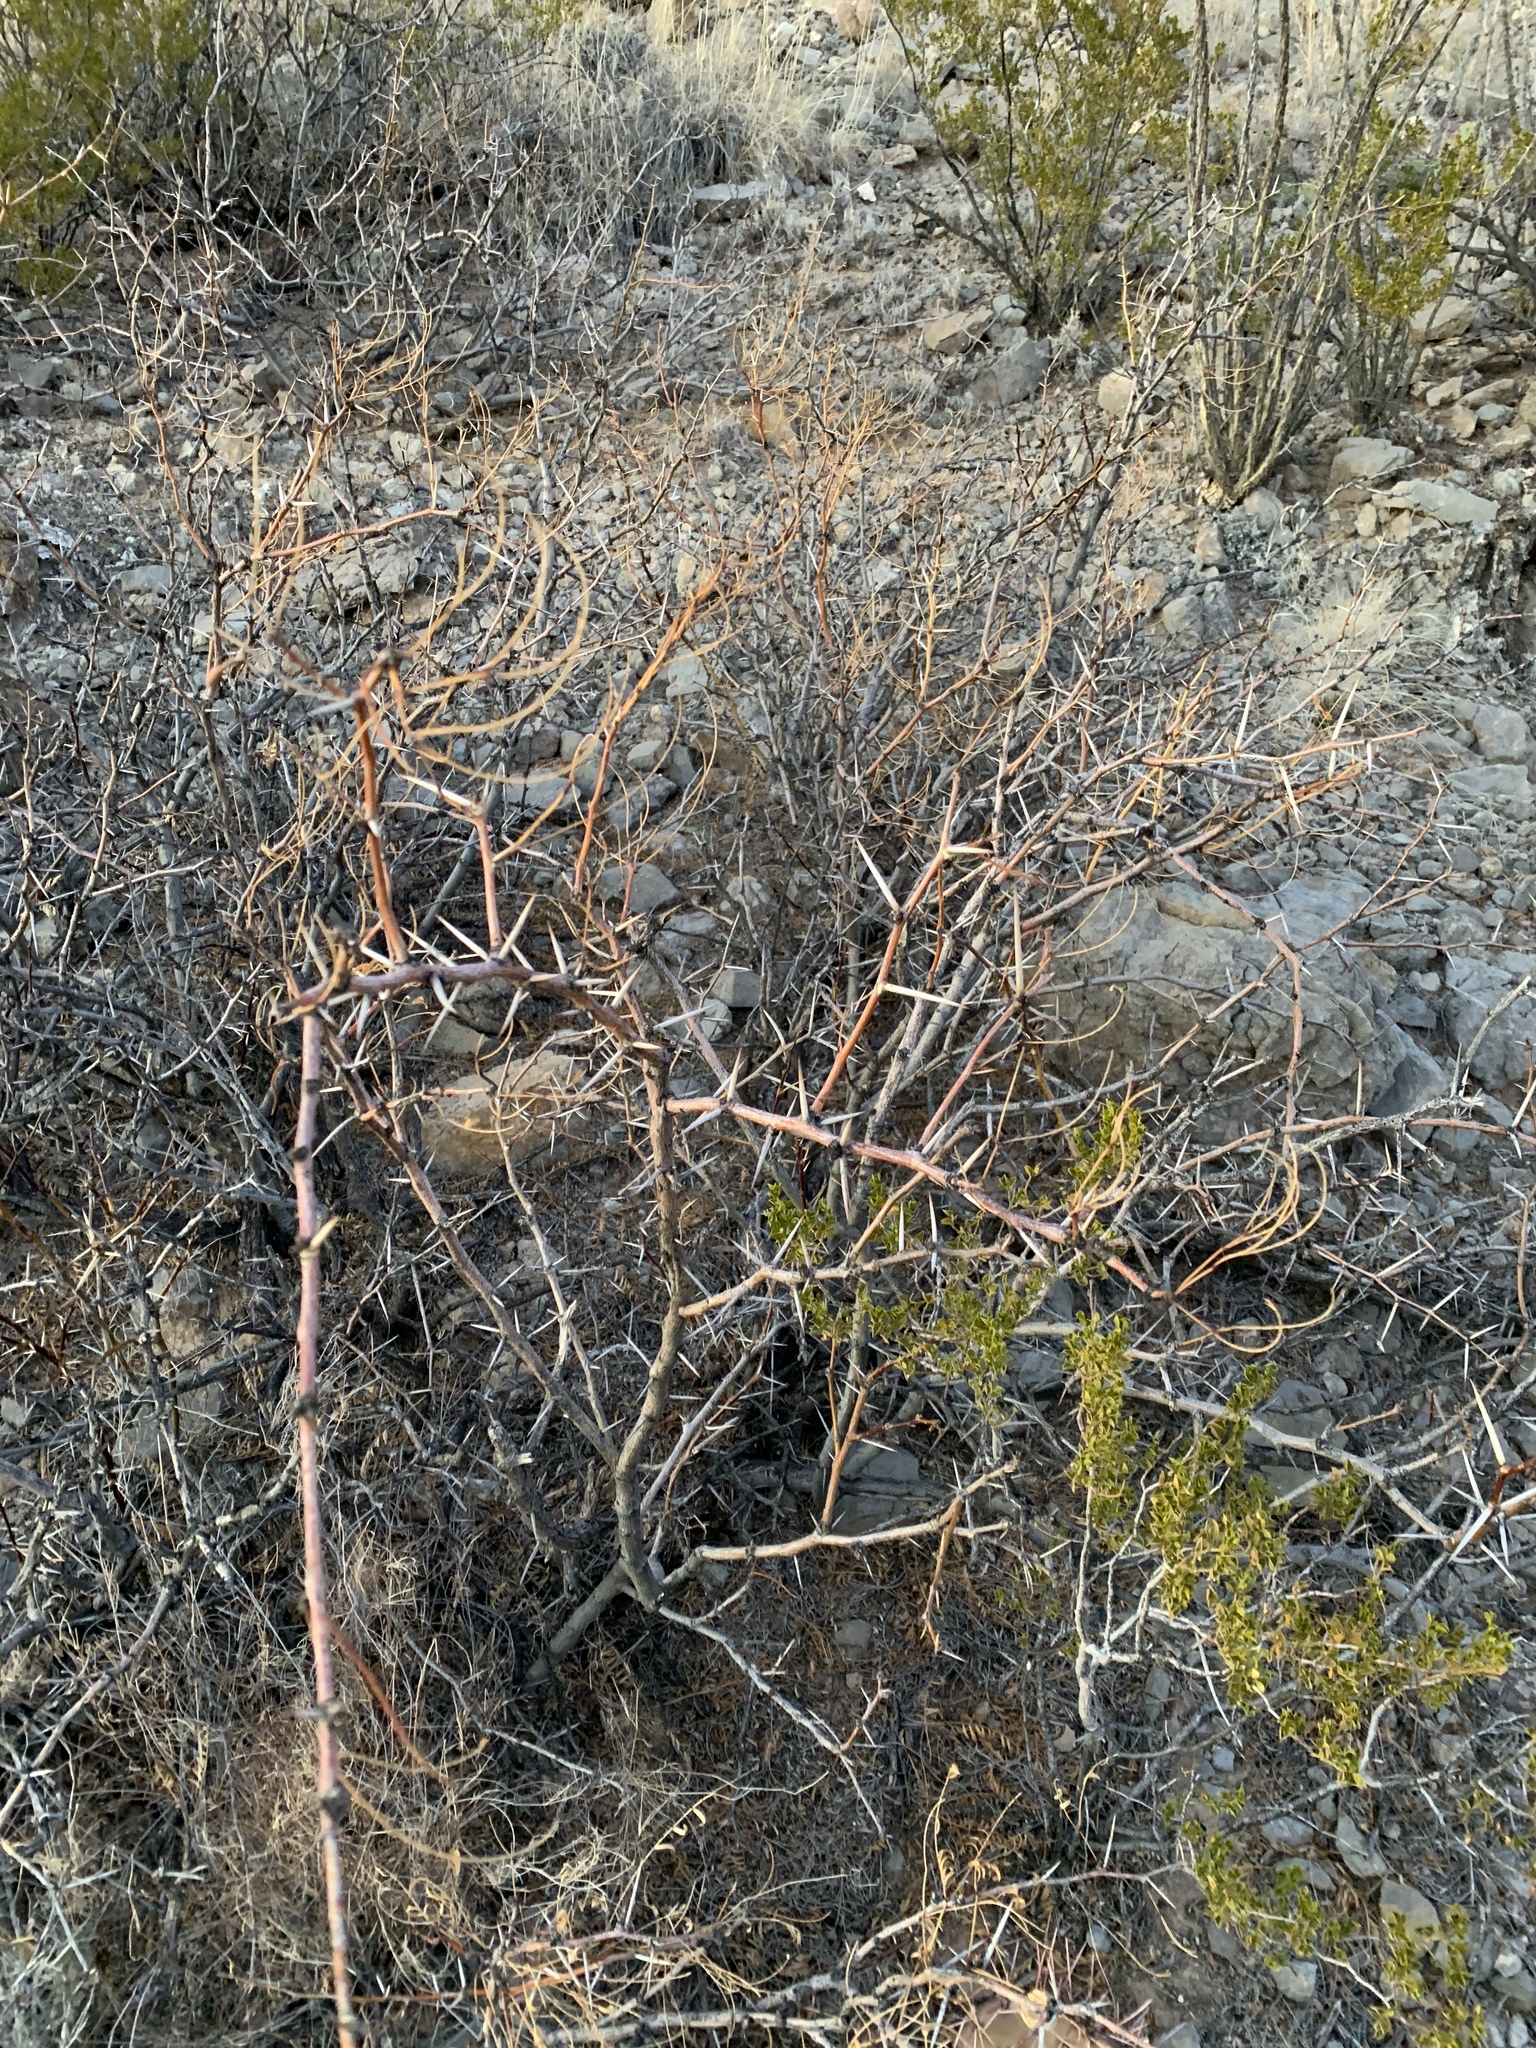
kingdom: Plantae
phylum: Tracheophyta
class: Magnoliopsida
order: Fabales
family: Fabaceae
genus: Prosopis
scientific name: Prosopis glandulosa
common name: Honey mesquite
